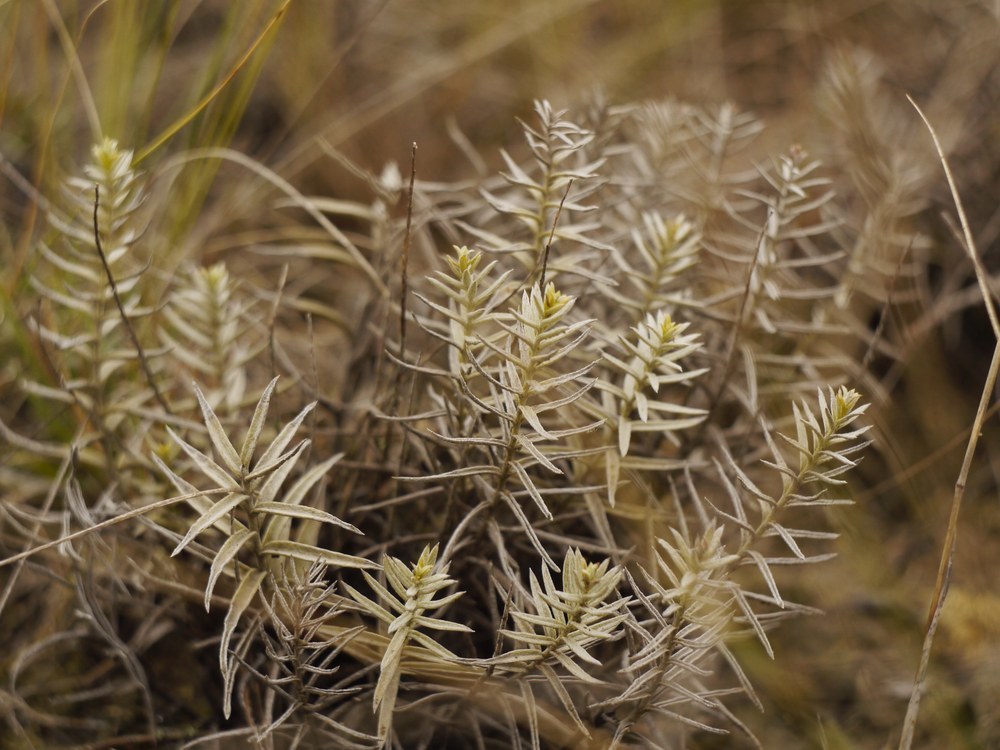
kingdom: Plantae
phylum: Tracheophyta
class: Magnoliopsida
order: Lamiales
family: Orobanchaceae
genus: Cymbaria
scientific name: Cymbaria borysthenica
